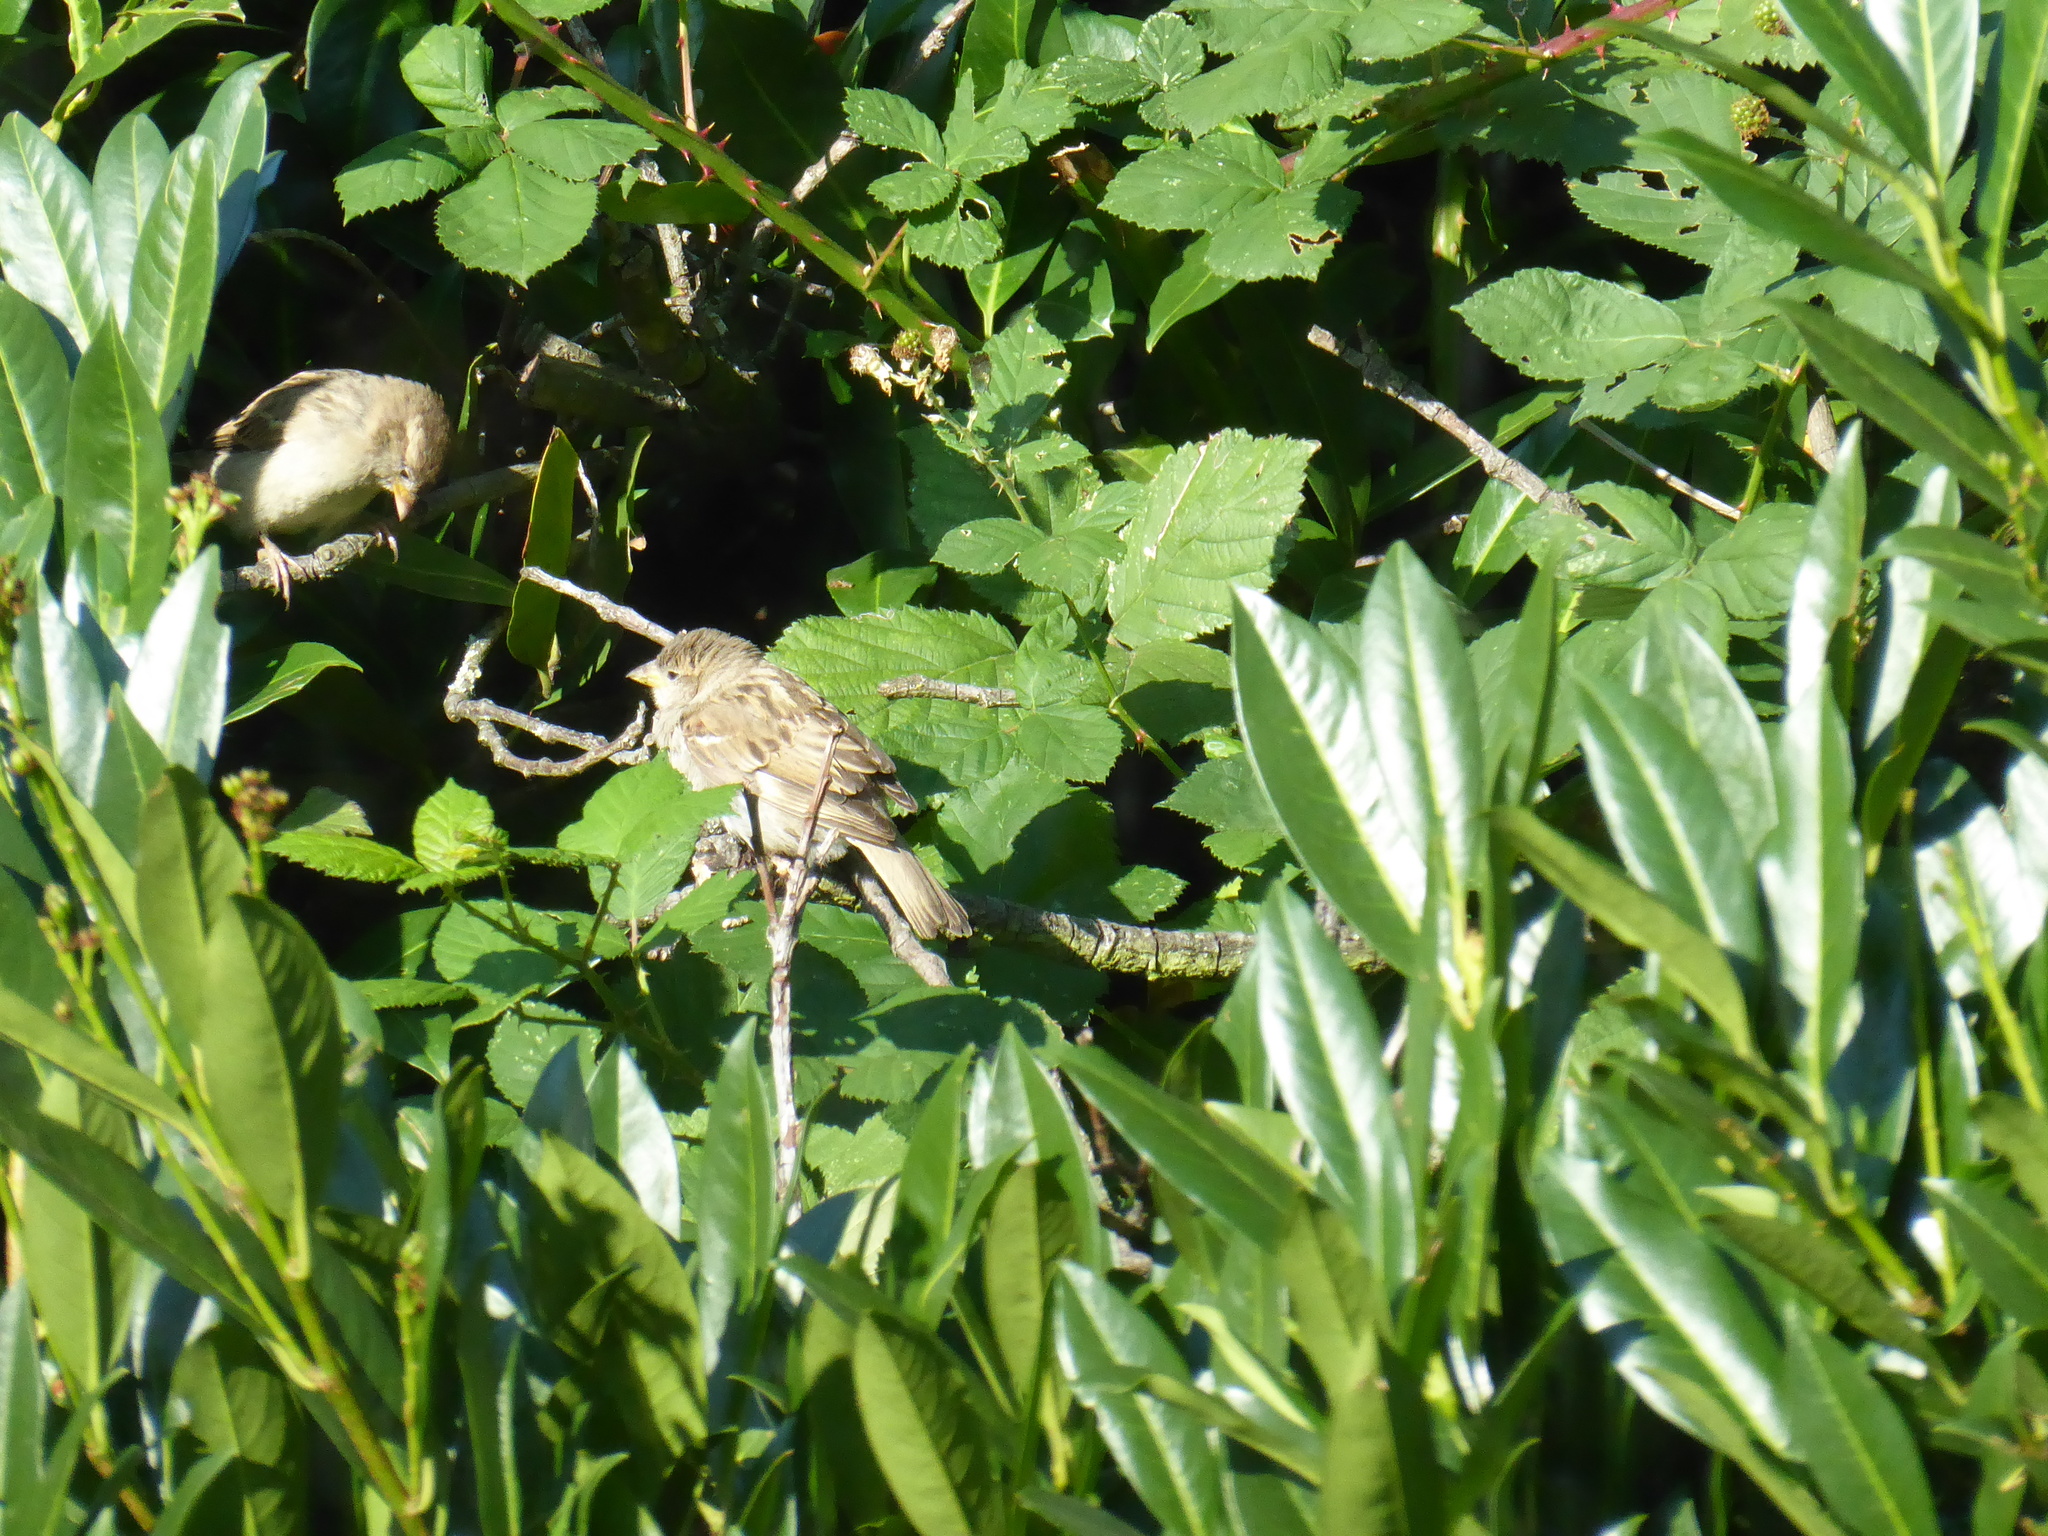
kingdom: Animalia
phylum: Chordata
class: Aves
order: Passeriformes
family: Passeridae
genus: Passer
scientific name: Passer domesticus
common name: House sparrow
